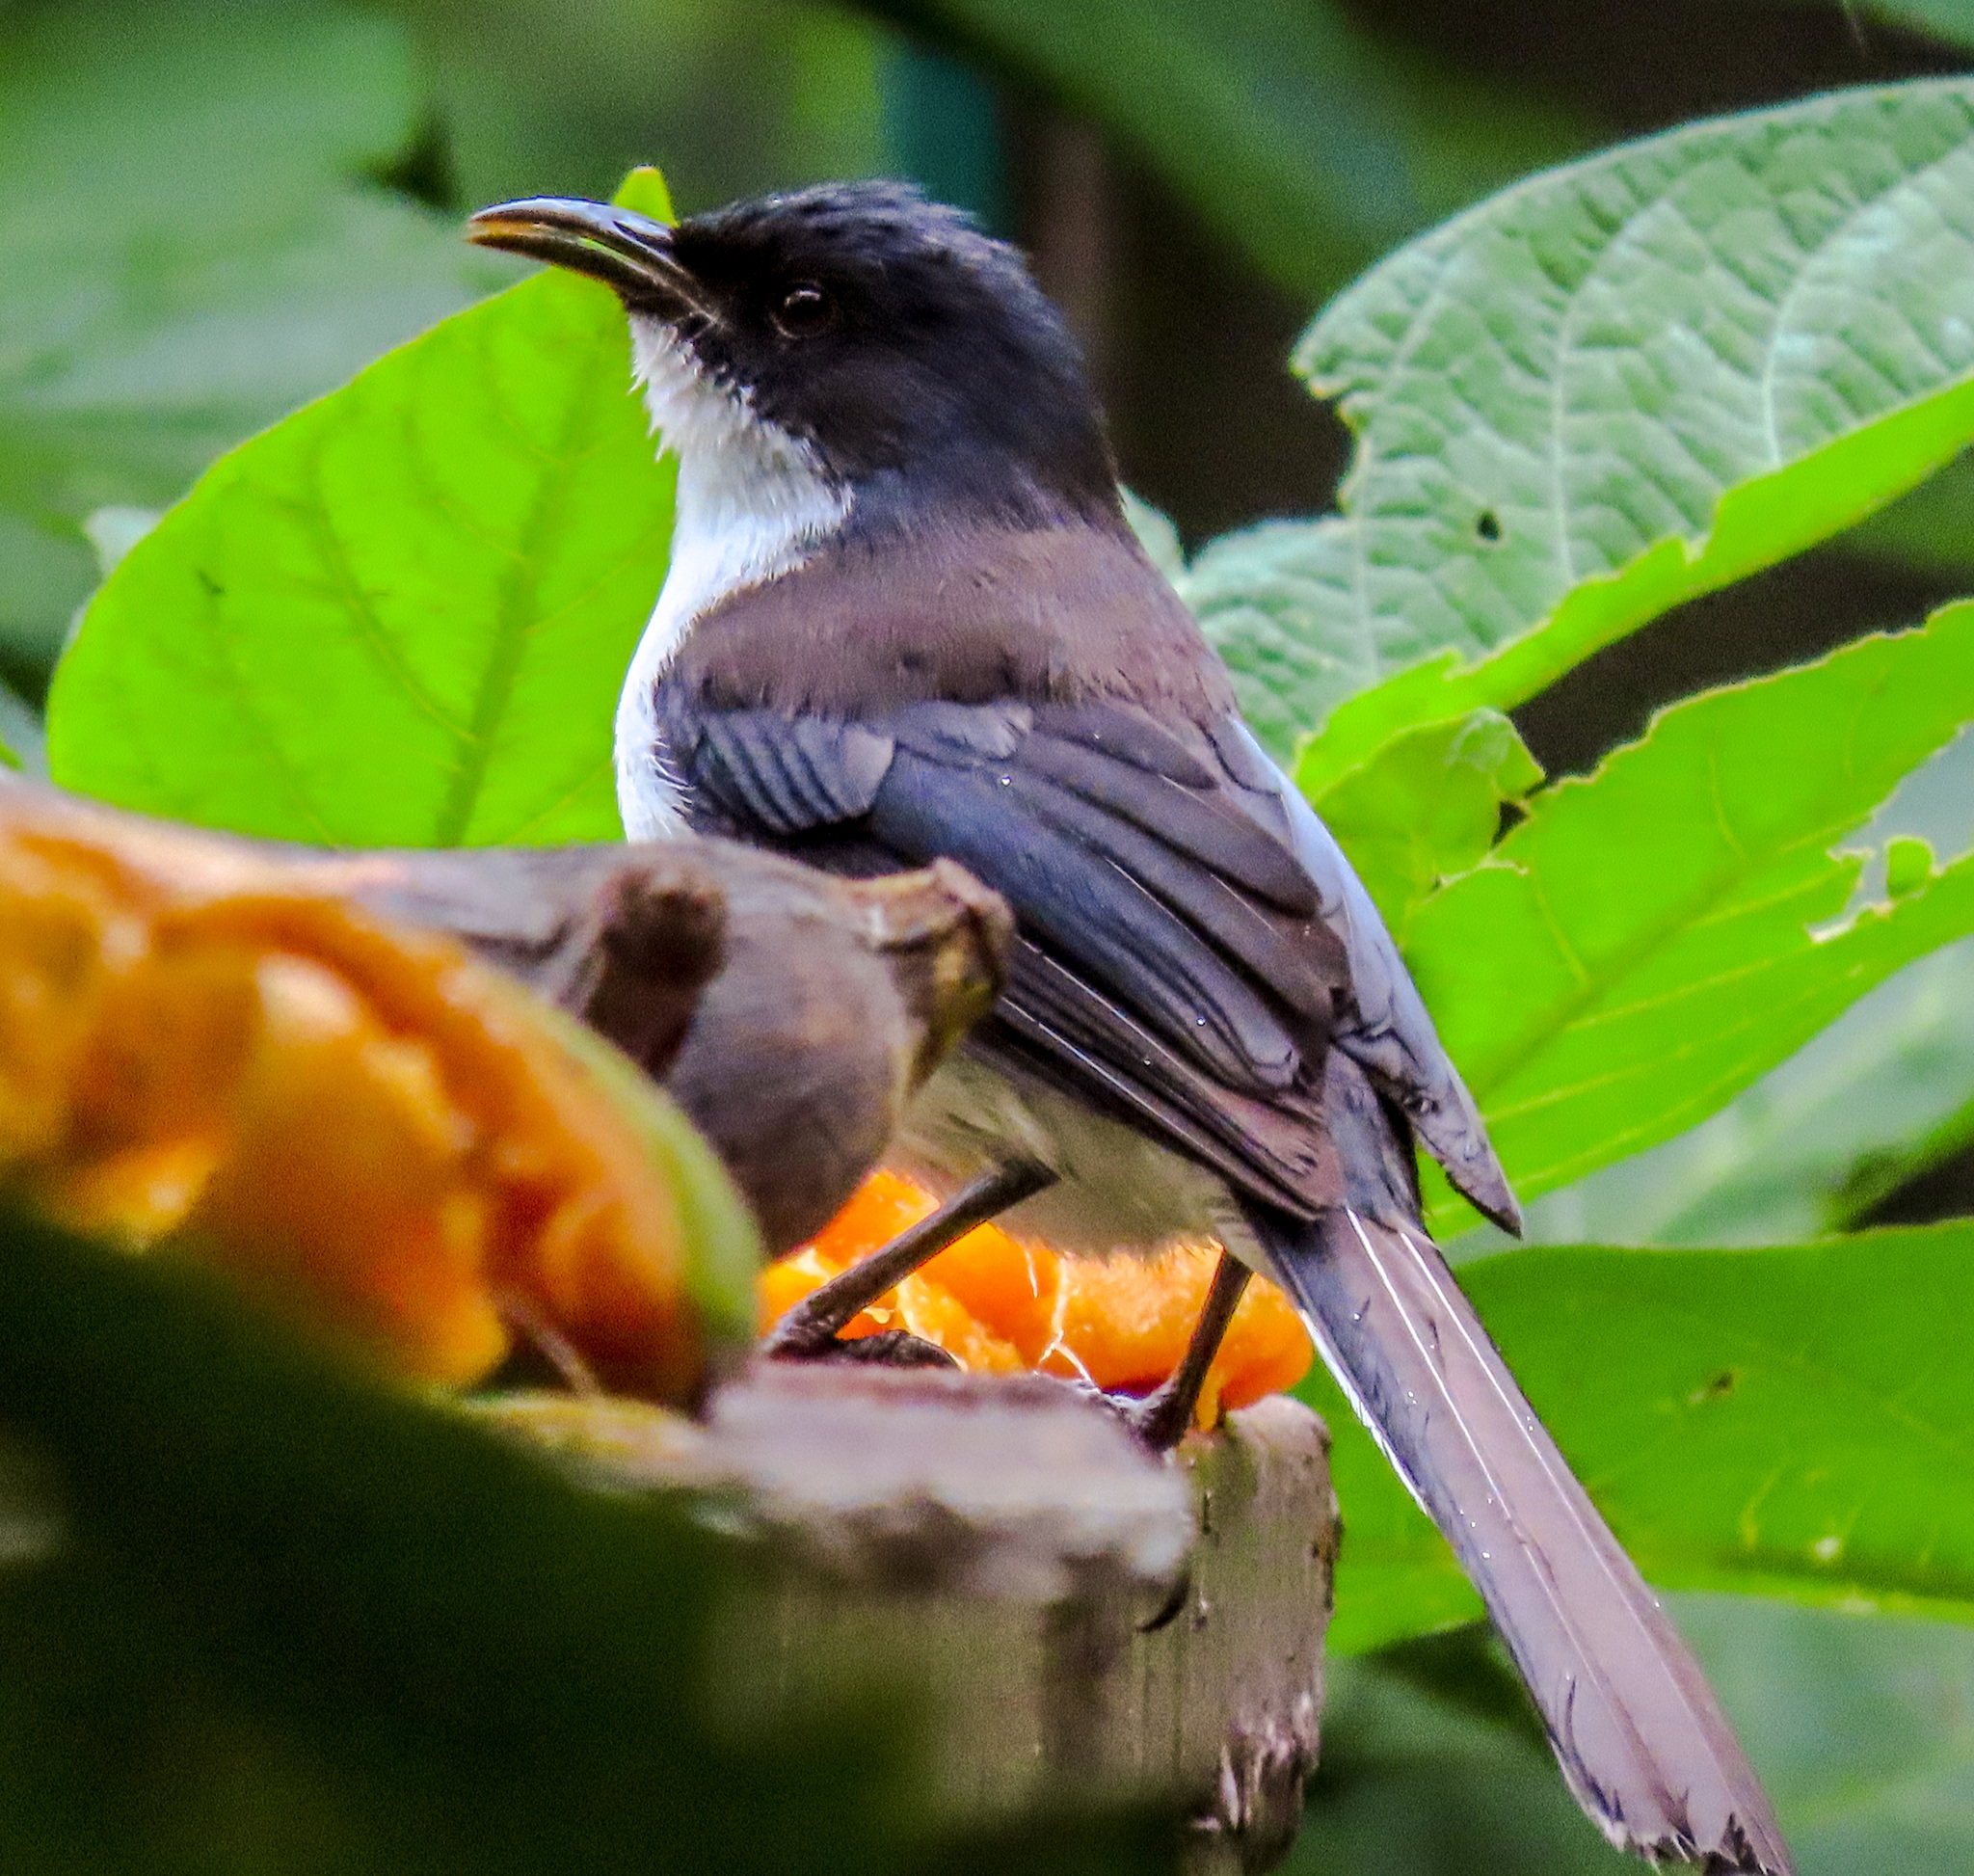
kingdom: Animalia
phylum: Chordata
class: Aves
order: Passeriformes
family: Leiothrichidae
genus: Heterophasia
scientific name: Heterophasia melanoleuca
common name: Dark-backed sibia
